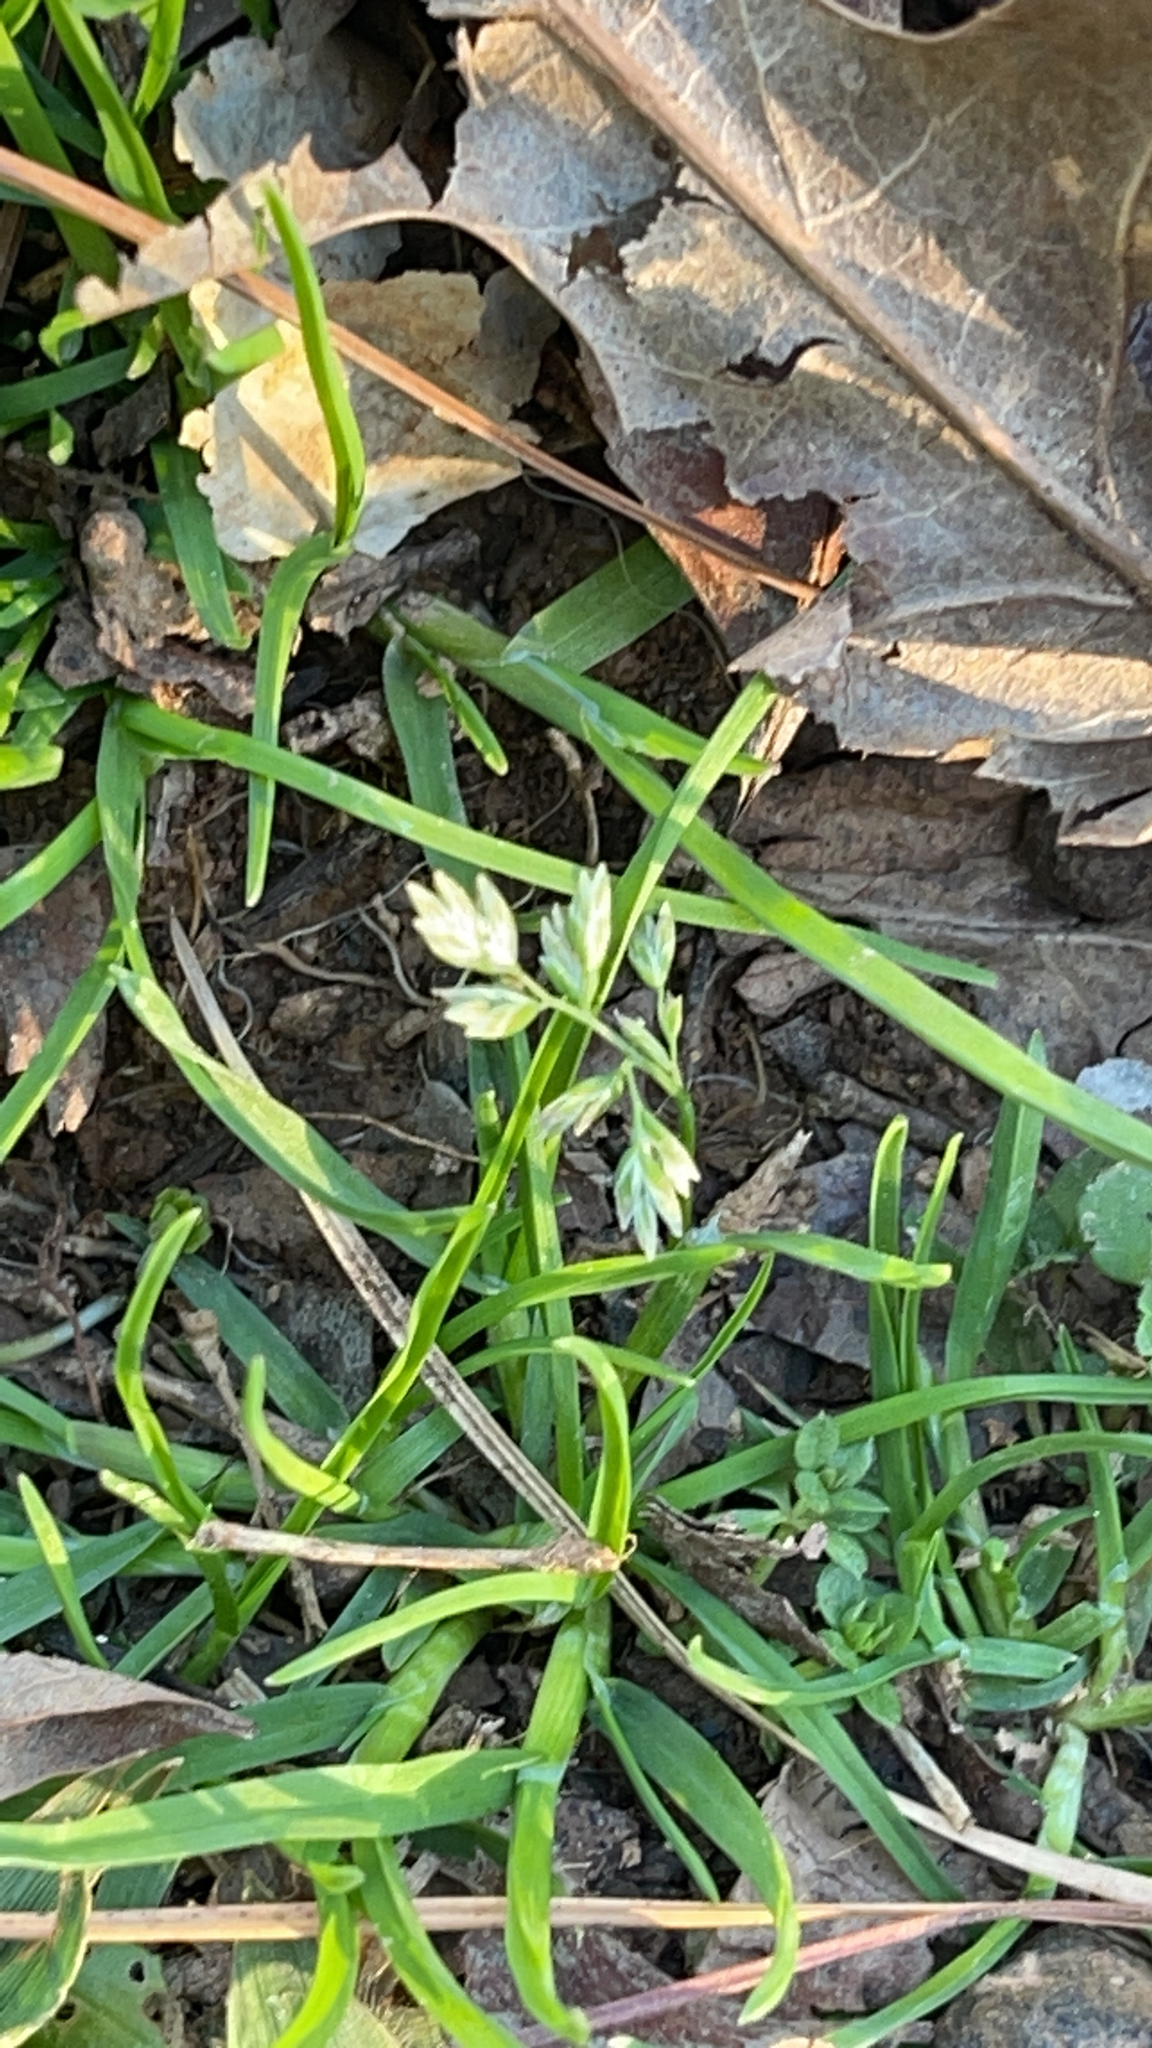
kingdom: Plantae
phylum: Tracheophyta
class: Liliopsida
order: Poales
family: Poaceae
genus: Poa
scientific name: Poa annua
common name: Annual bluegrass
